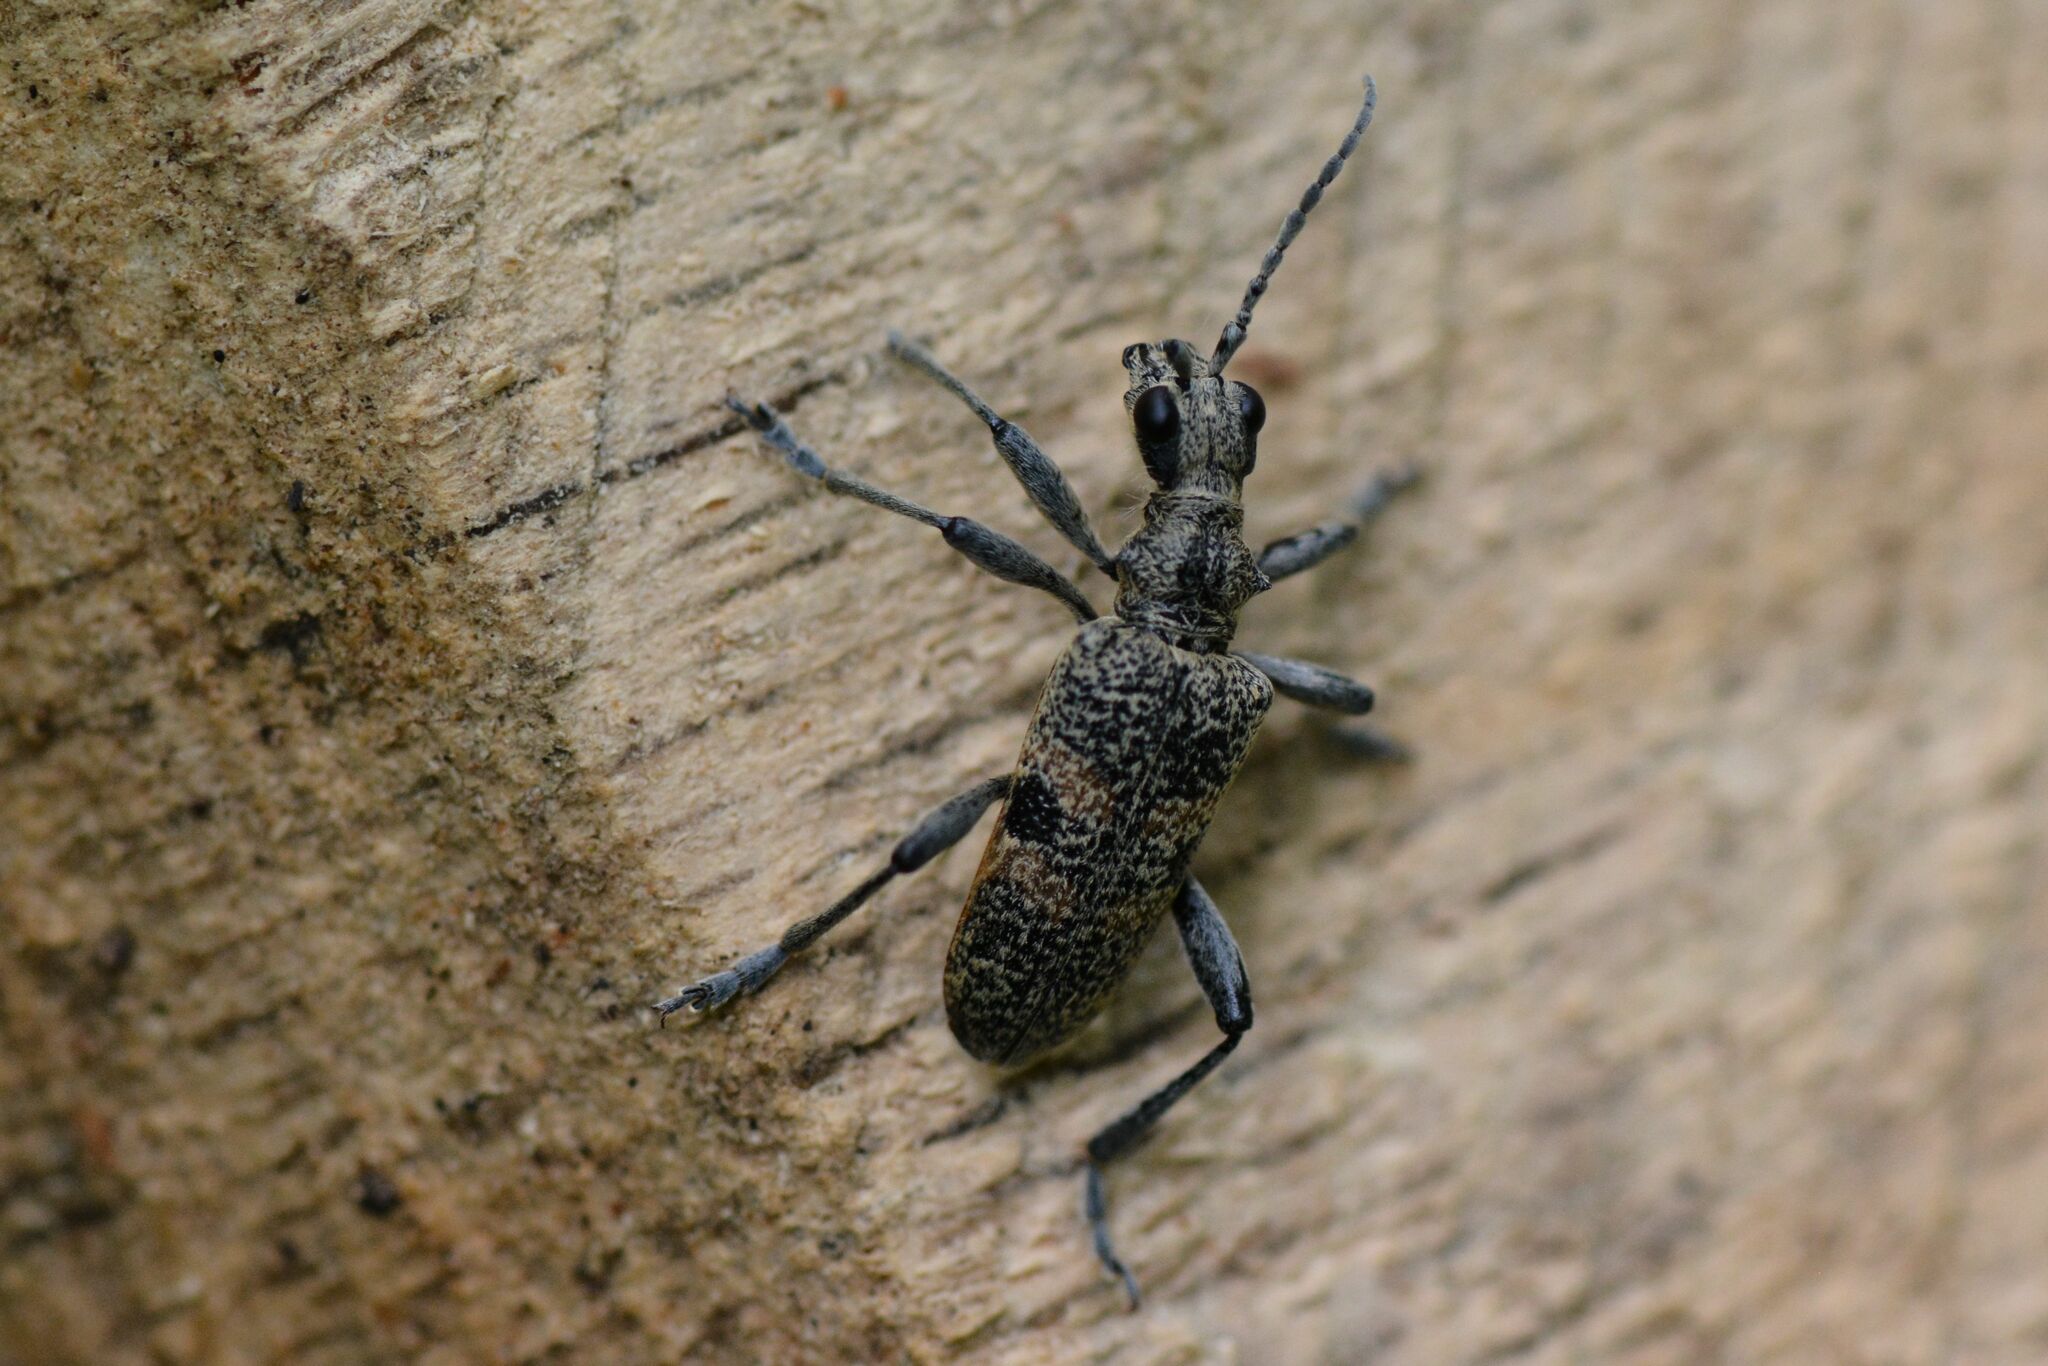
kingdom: Animalia
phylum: Arthropoda
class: Insecta
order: Coleoptera
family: Cerambycidae
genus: Rhagium
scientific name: Rhagium mordax
